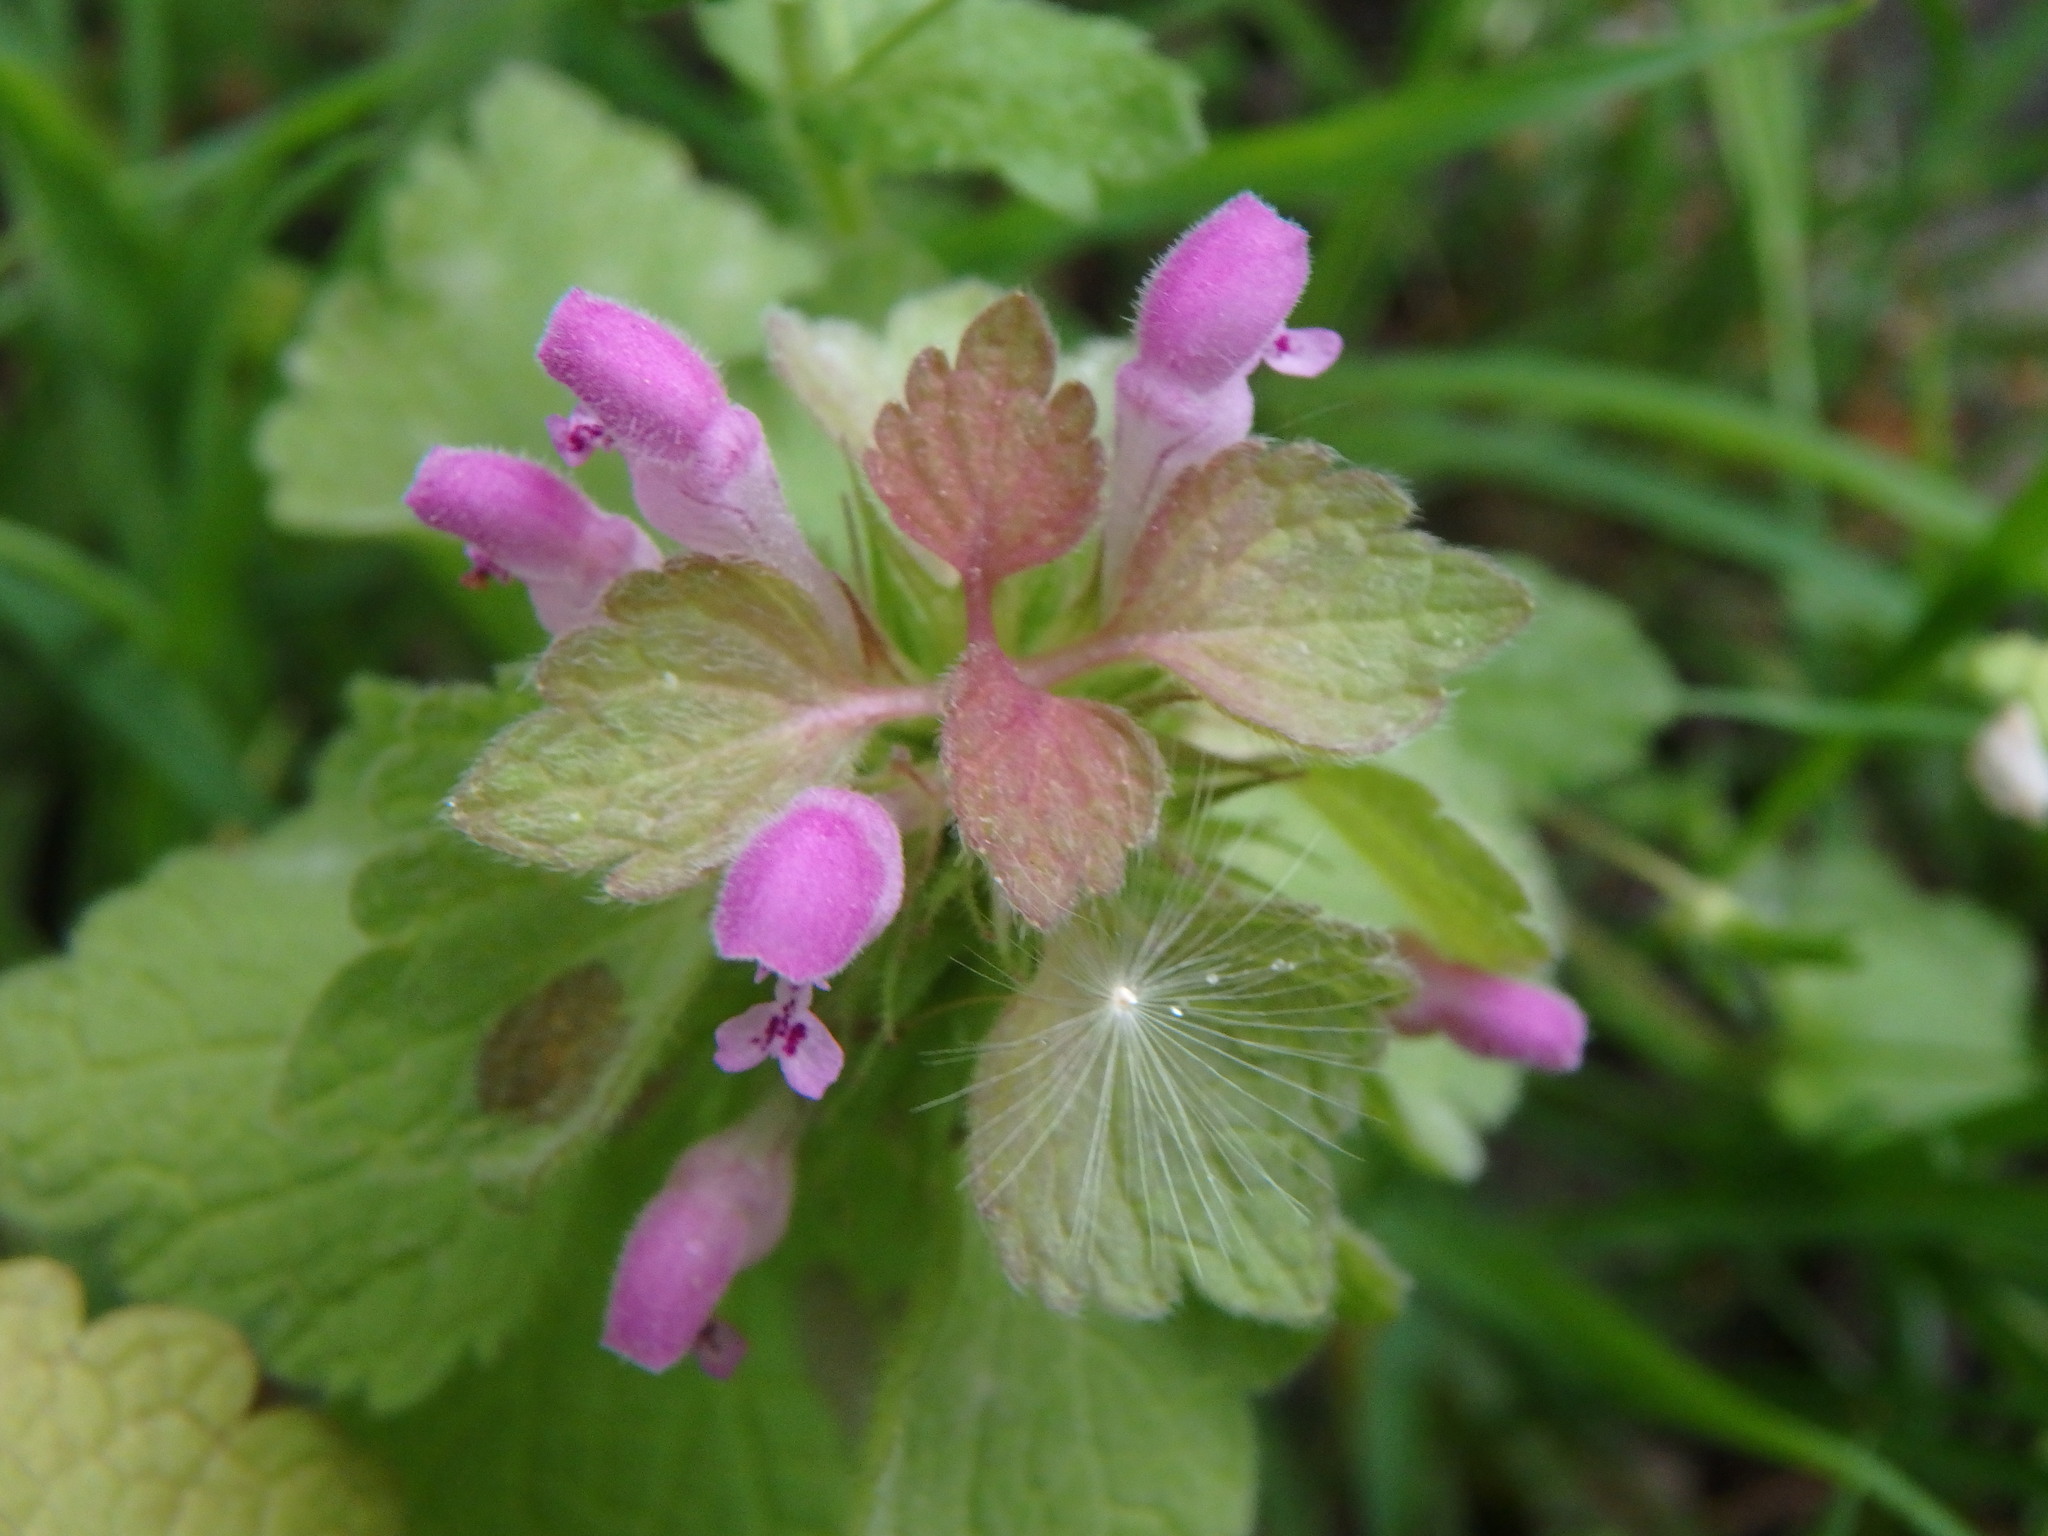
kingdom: Plantae
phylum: Tracheophyta
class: Magnoliopsida
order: Lamiales
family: Lamiaceae
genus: Lamium
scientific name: Lamium purpureum
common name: Red dead-nettle
